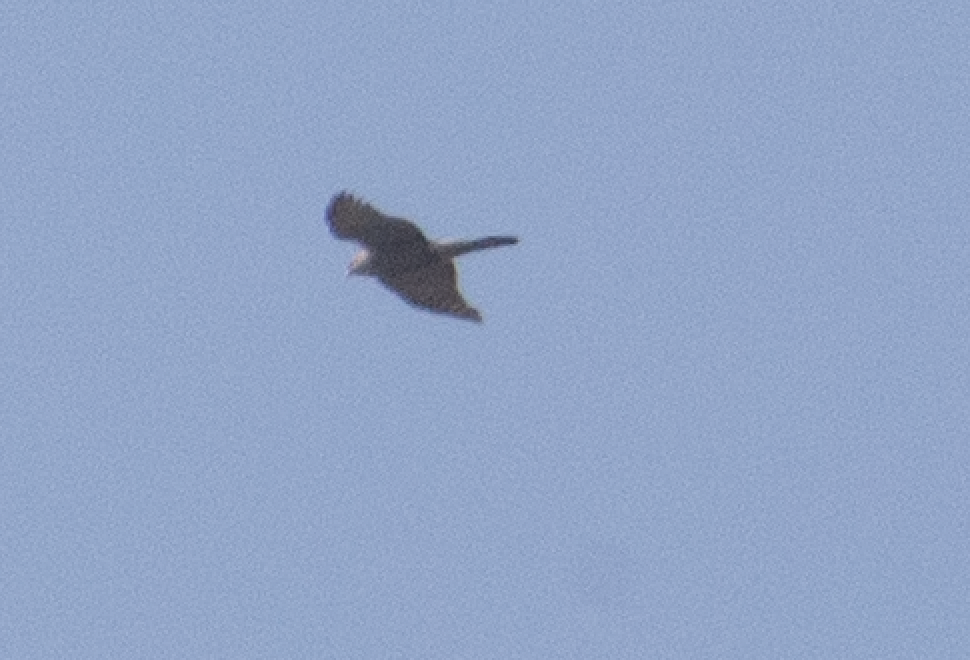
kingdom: Animalia
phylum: Chordata
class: Aves
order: Accipitriformes
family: Accipitridae
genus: Accipiter
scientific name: Accipiter nisus
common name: Eurasian sparrowhawk
